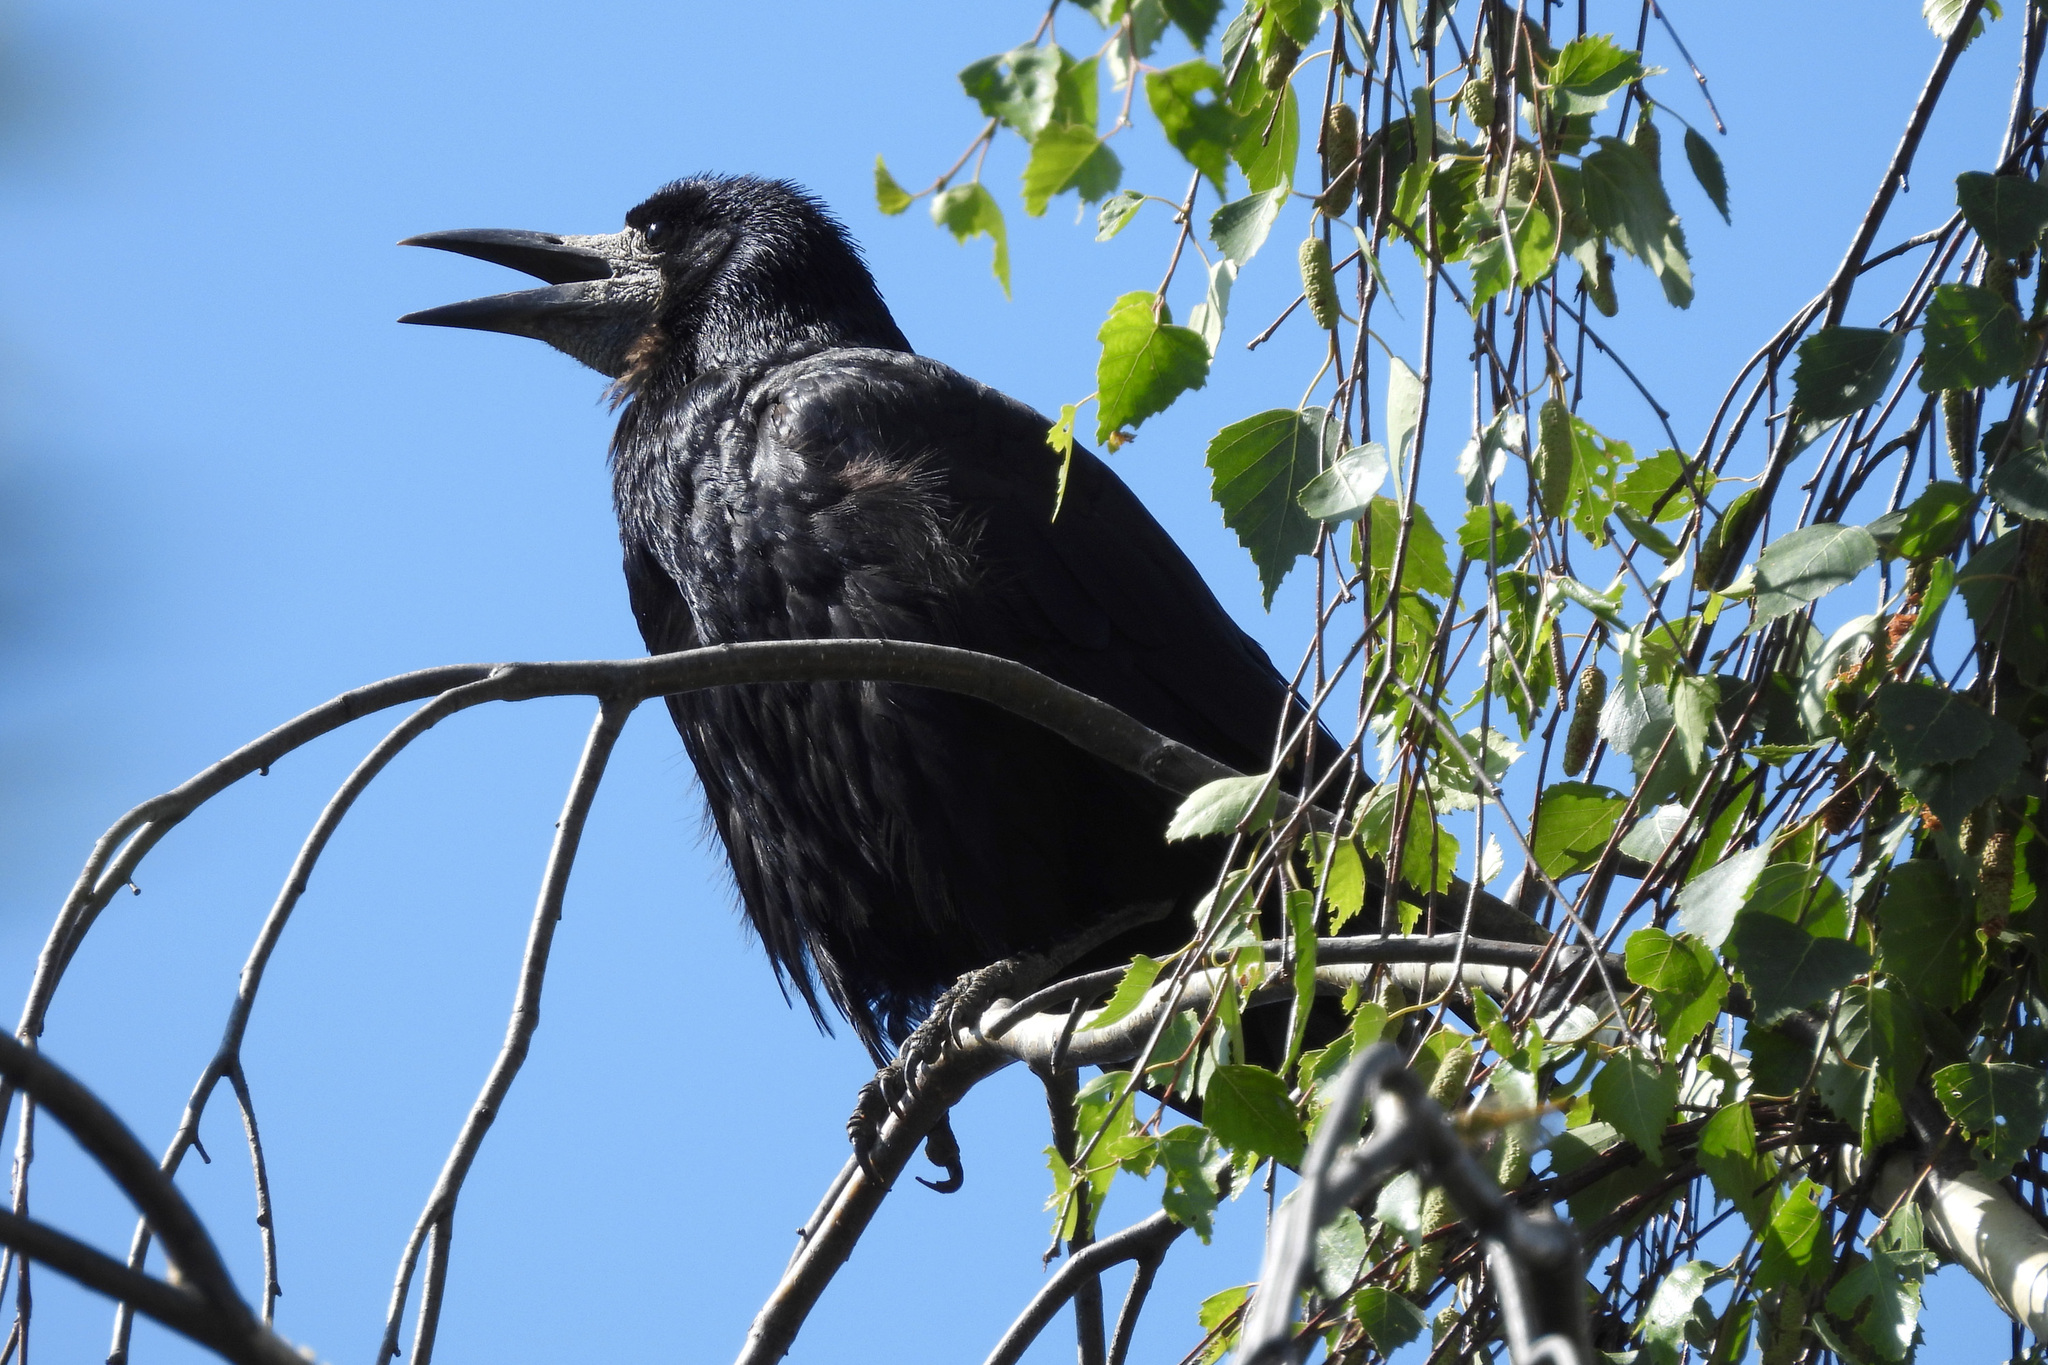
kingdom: Animalia
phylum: Chordata
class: Aves
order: Passeriformes
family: Corvidae
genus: Corvus
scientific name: Corvus frugilegus
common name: Rook
